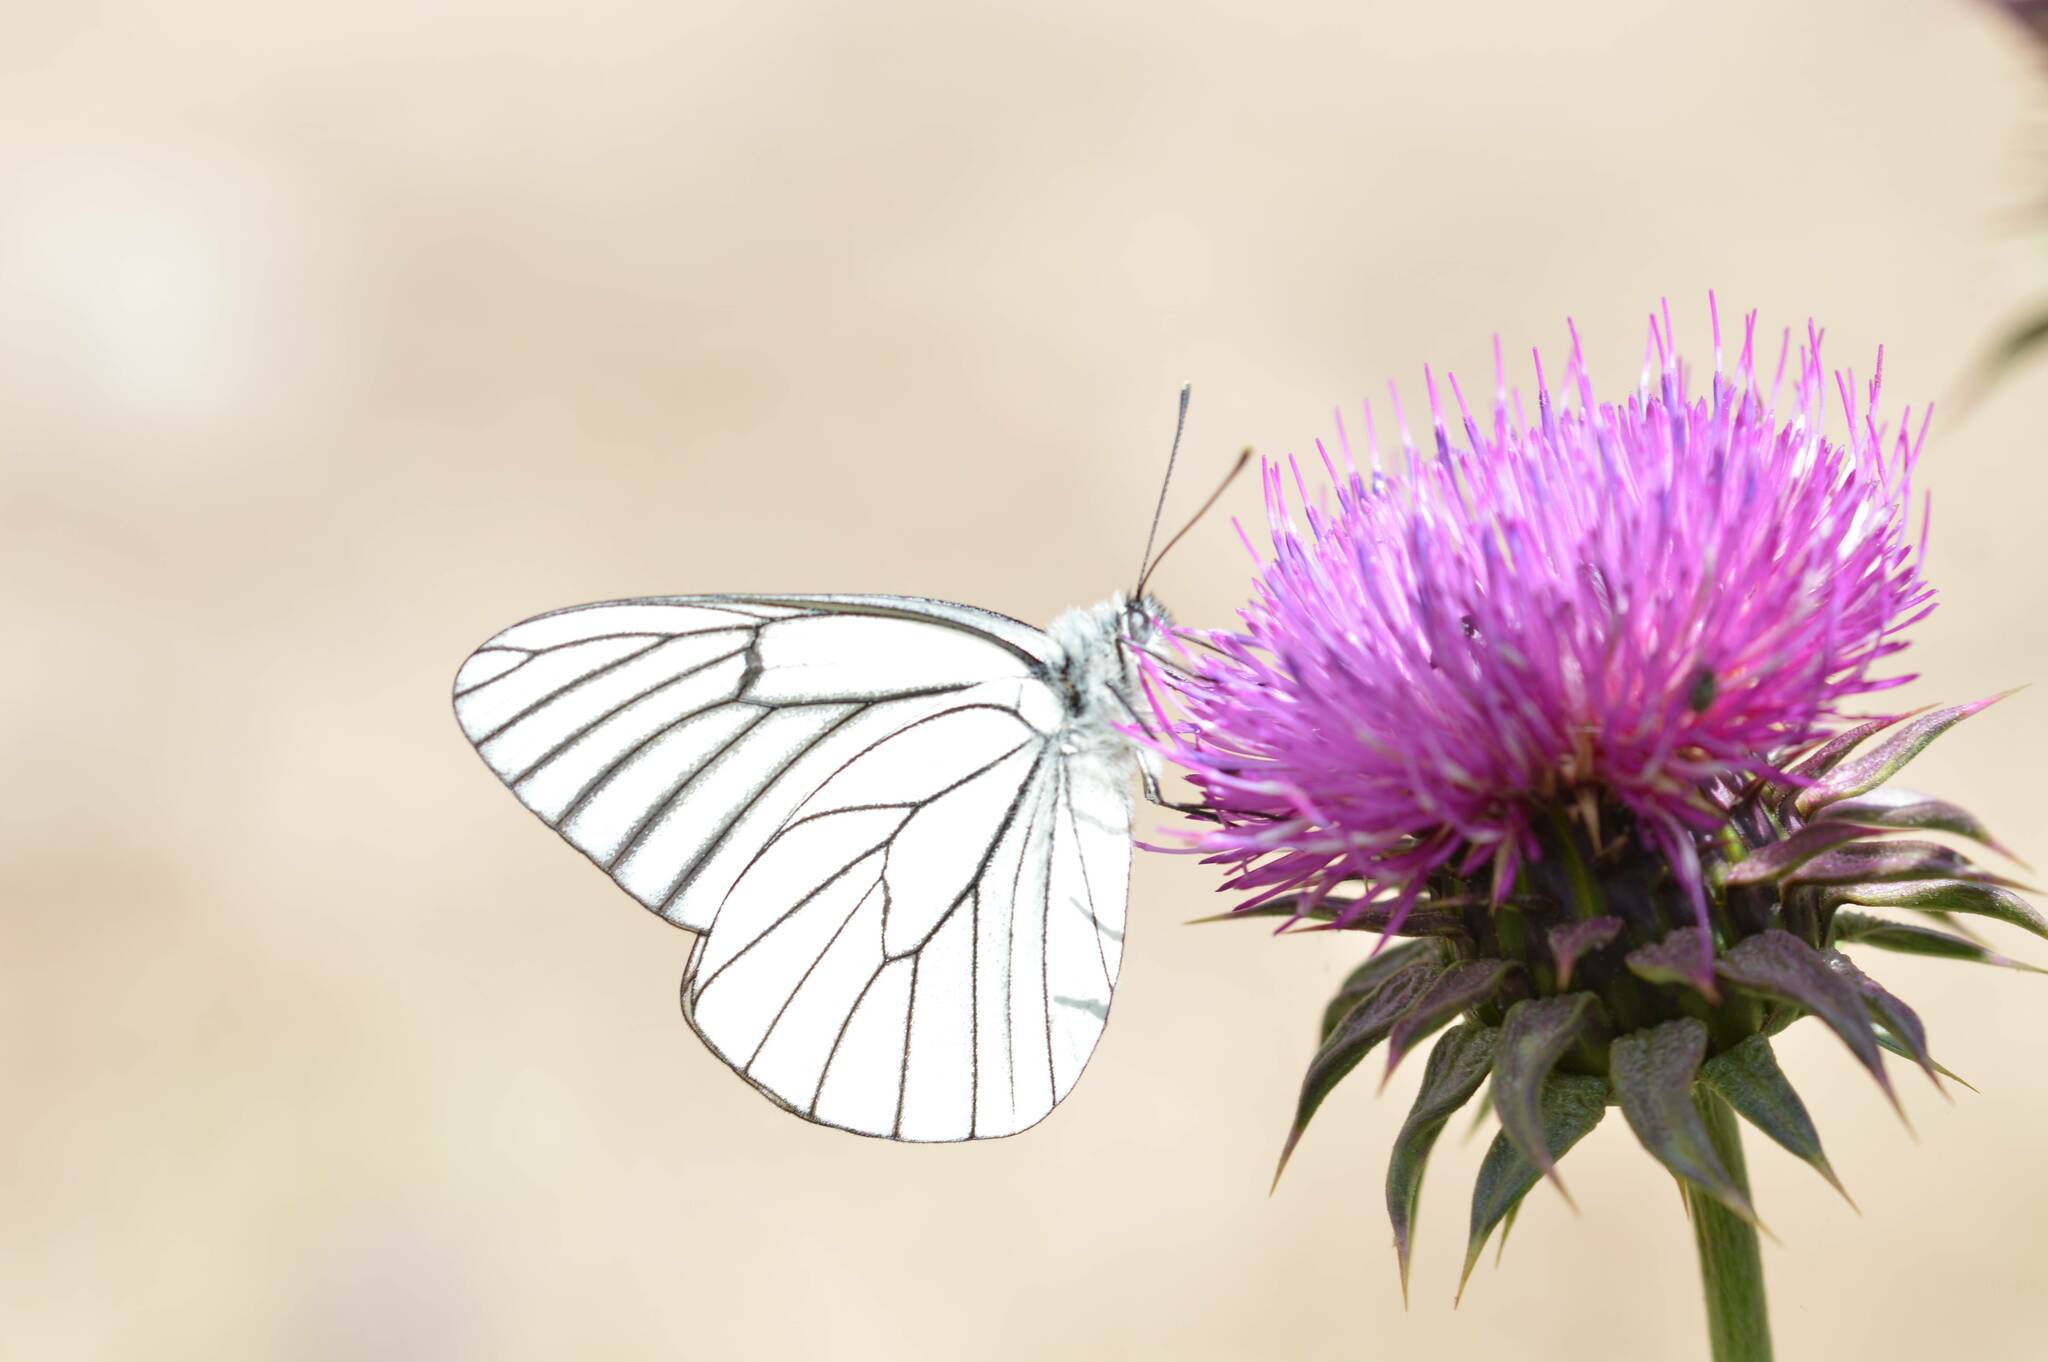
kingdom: Animalia
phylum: Arthropoda
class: Insecta
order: Lepidoptera
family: Pieridae
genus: Aporia
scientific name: Aporia crataegi
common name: Black-veined white
